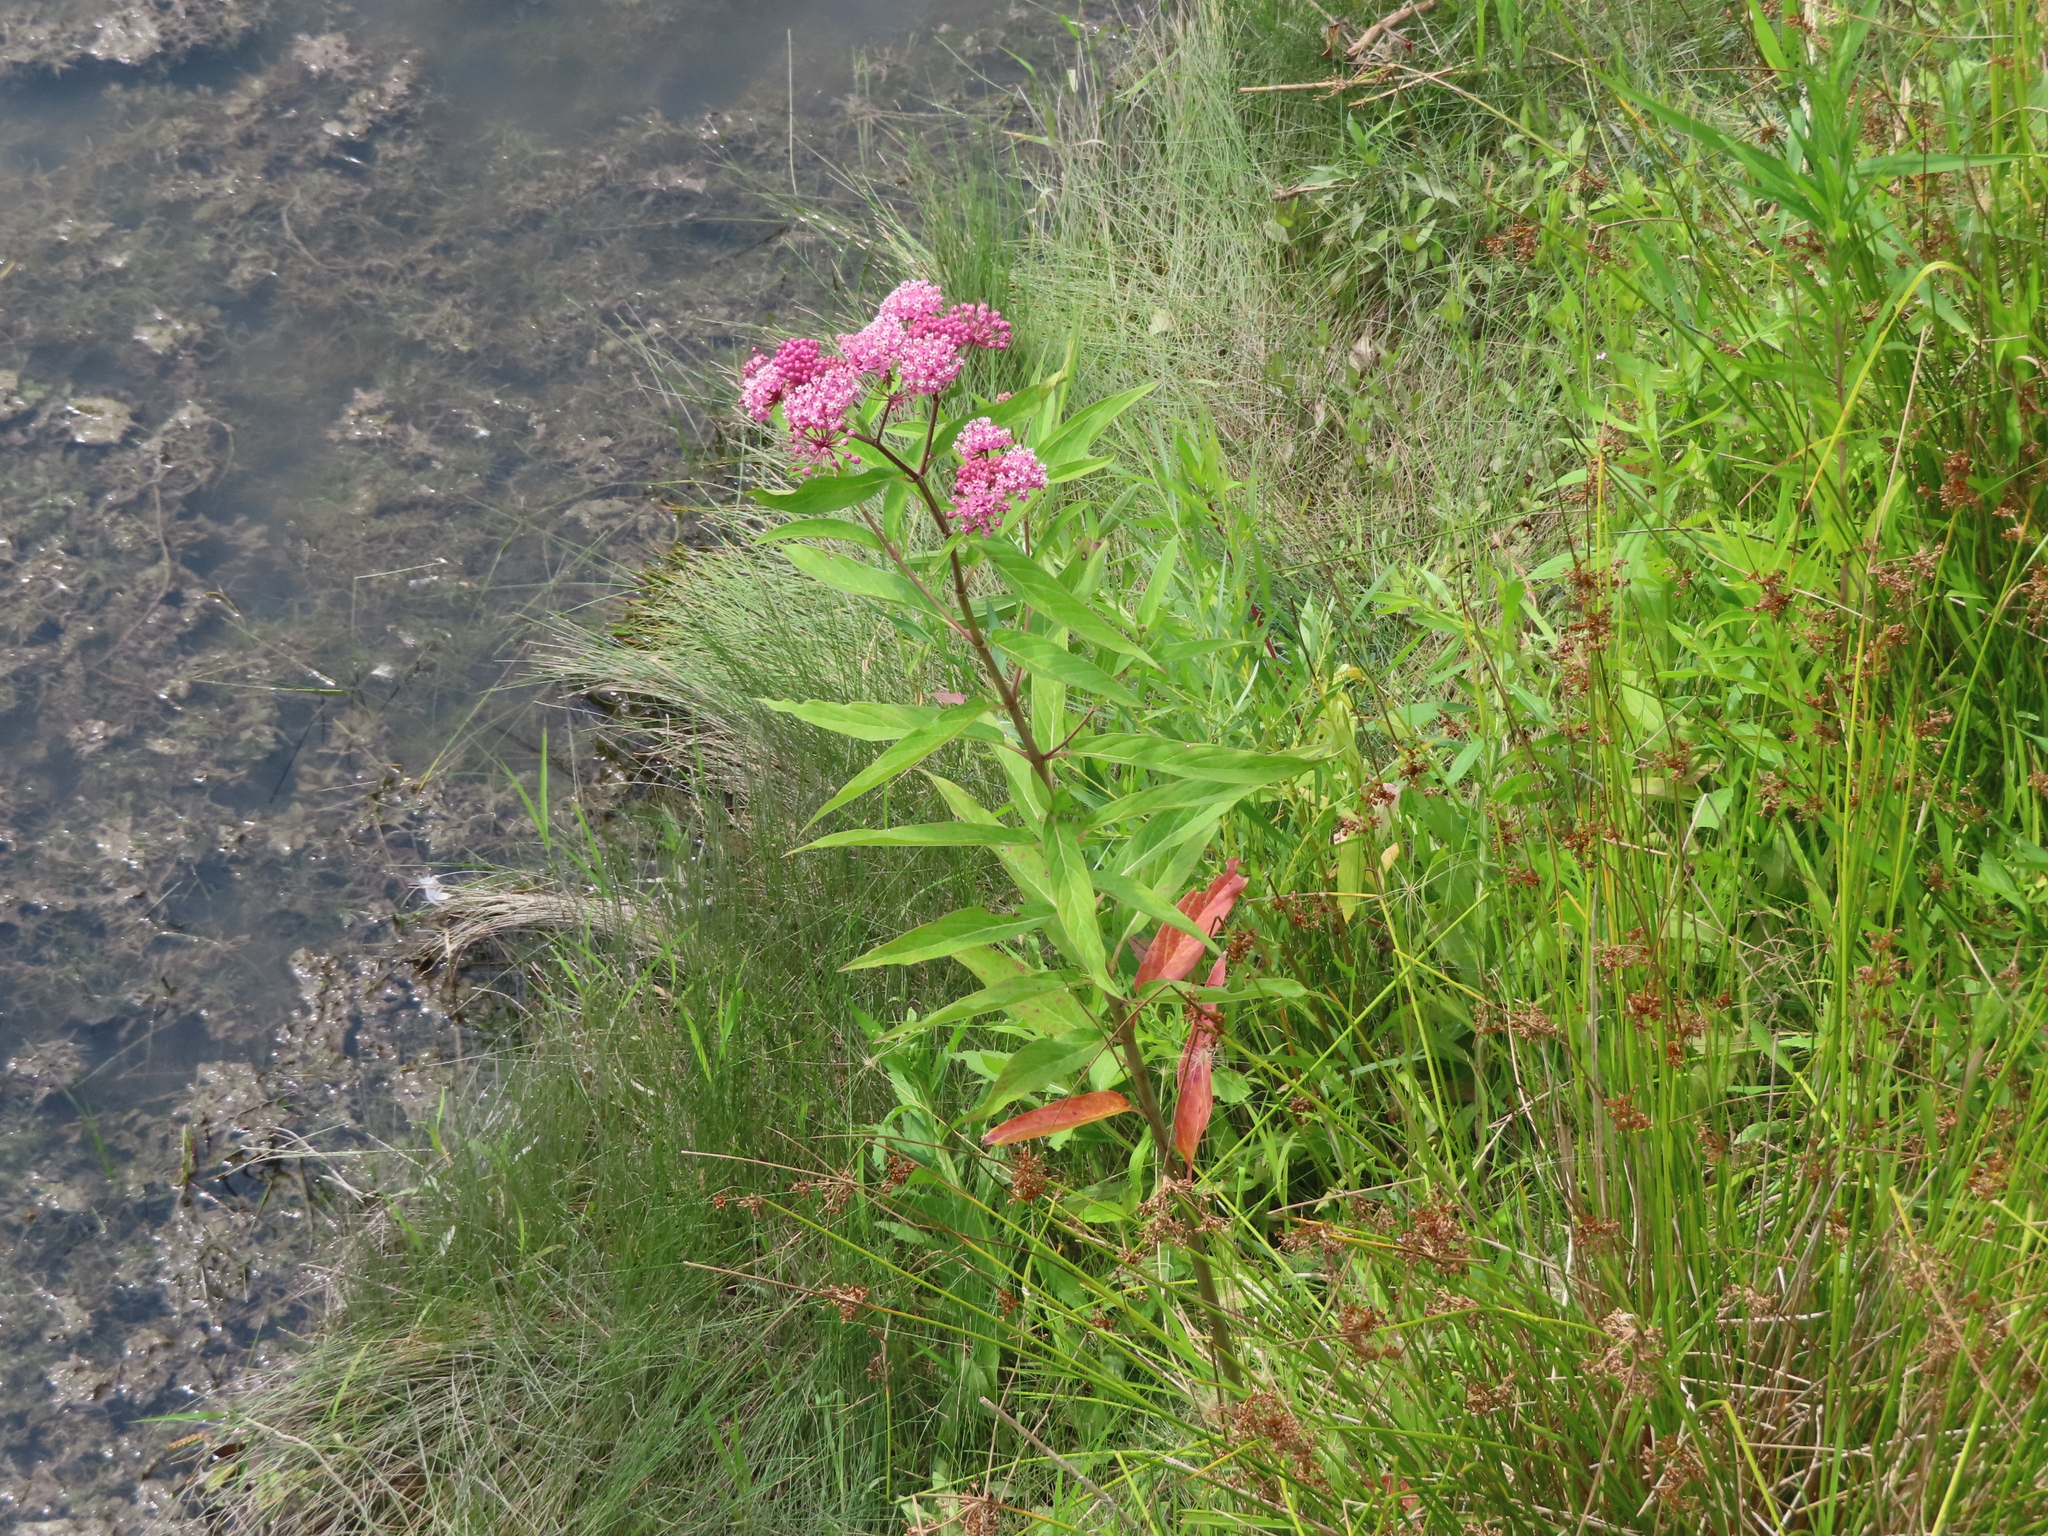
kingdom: Plantae
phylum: Tracheophyta
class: Magnoliopsida
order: Gentianales
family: Apocynaceae
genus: Asclepias
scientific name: Asclepias incarnata
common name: Swamp milkweed
